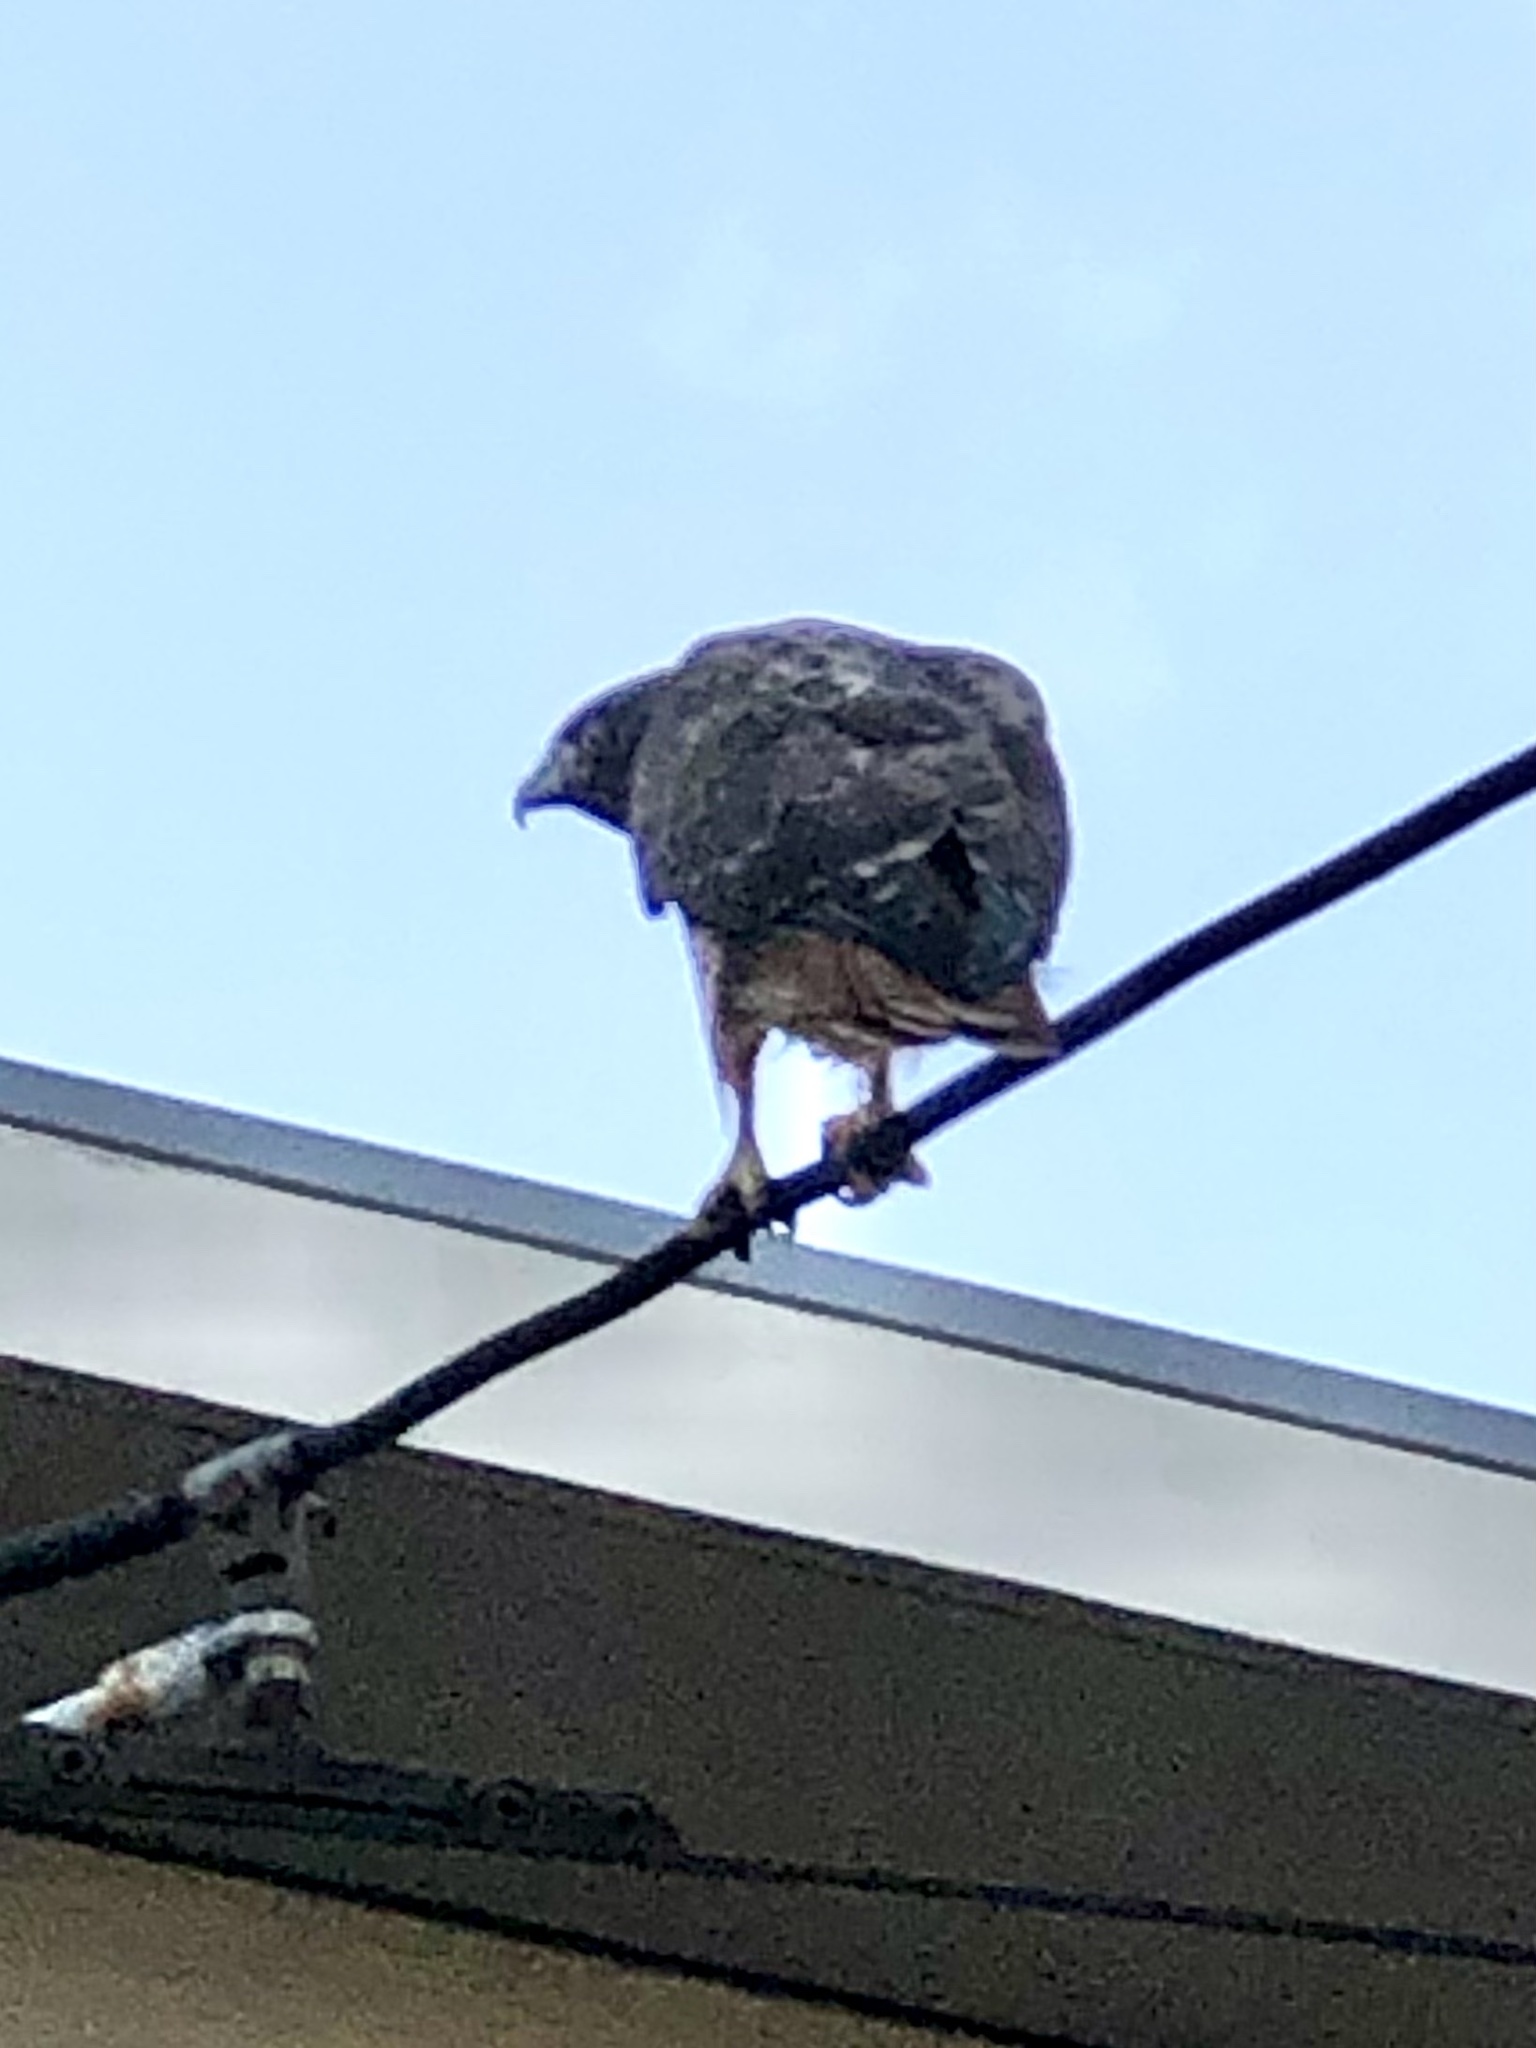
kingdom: Animalia
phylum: Chordata
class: Aves
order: Accipitriformes
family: Accipitridae
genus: Buteo
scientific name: Buteo jamaicensis
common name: Red-tailed hawk
